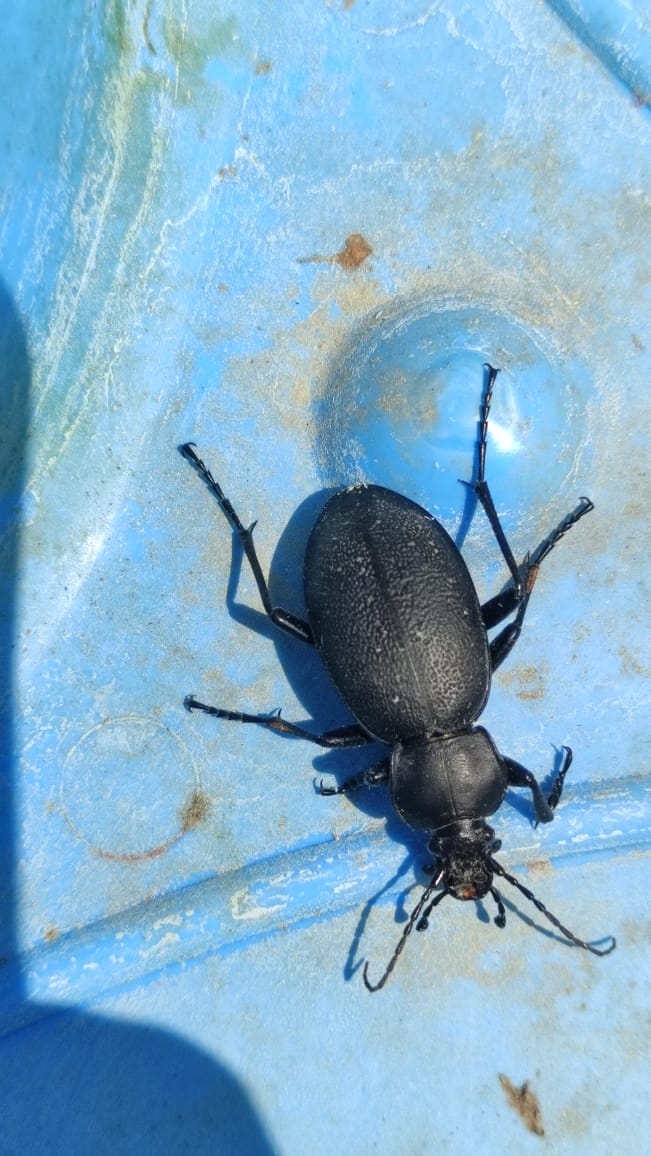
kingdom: Animalia
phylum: Arthropoda
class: Insecta
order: Coleoptera
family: Carabidae
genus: Carabus
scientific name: Carabus coriaceus
